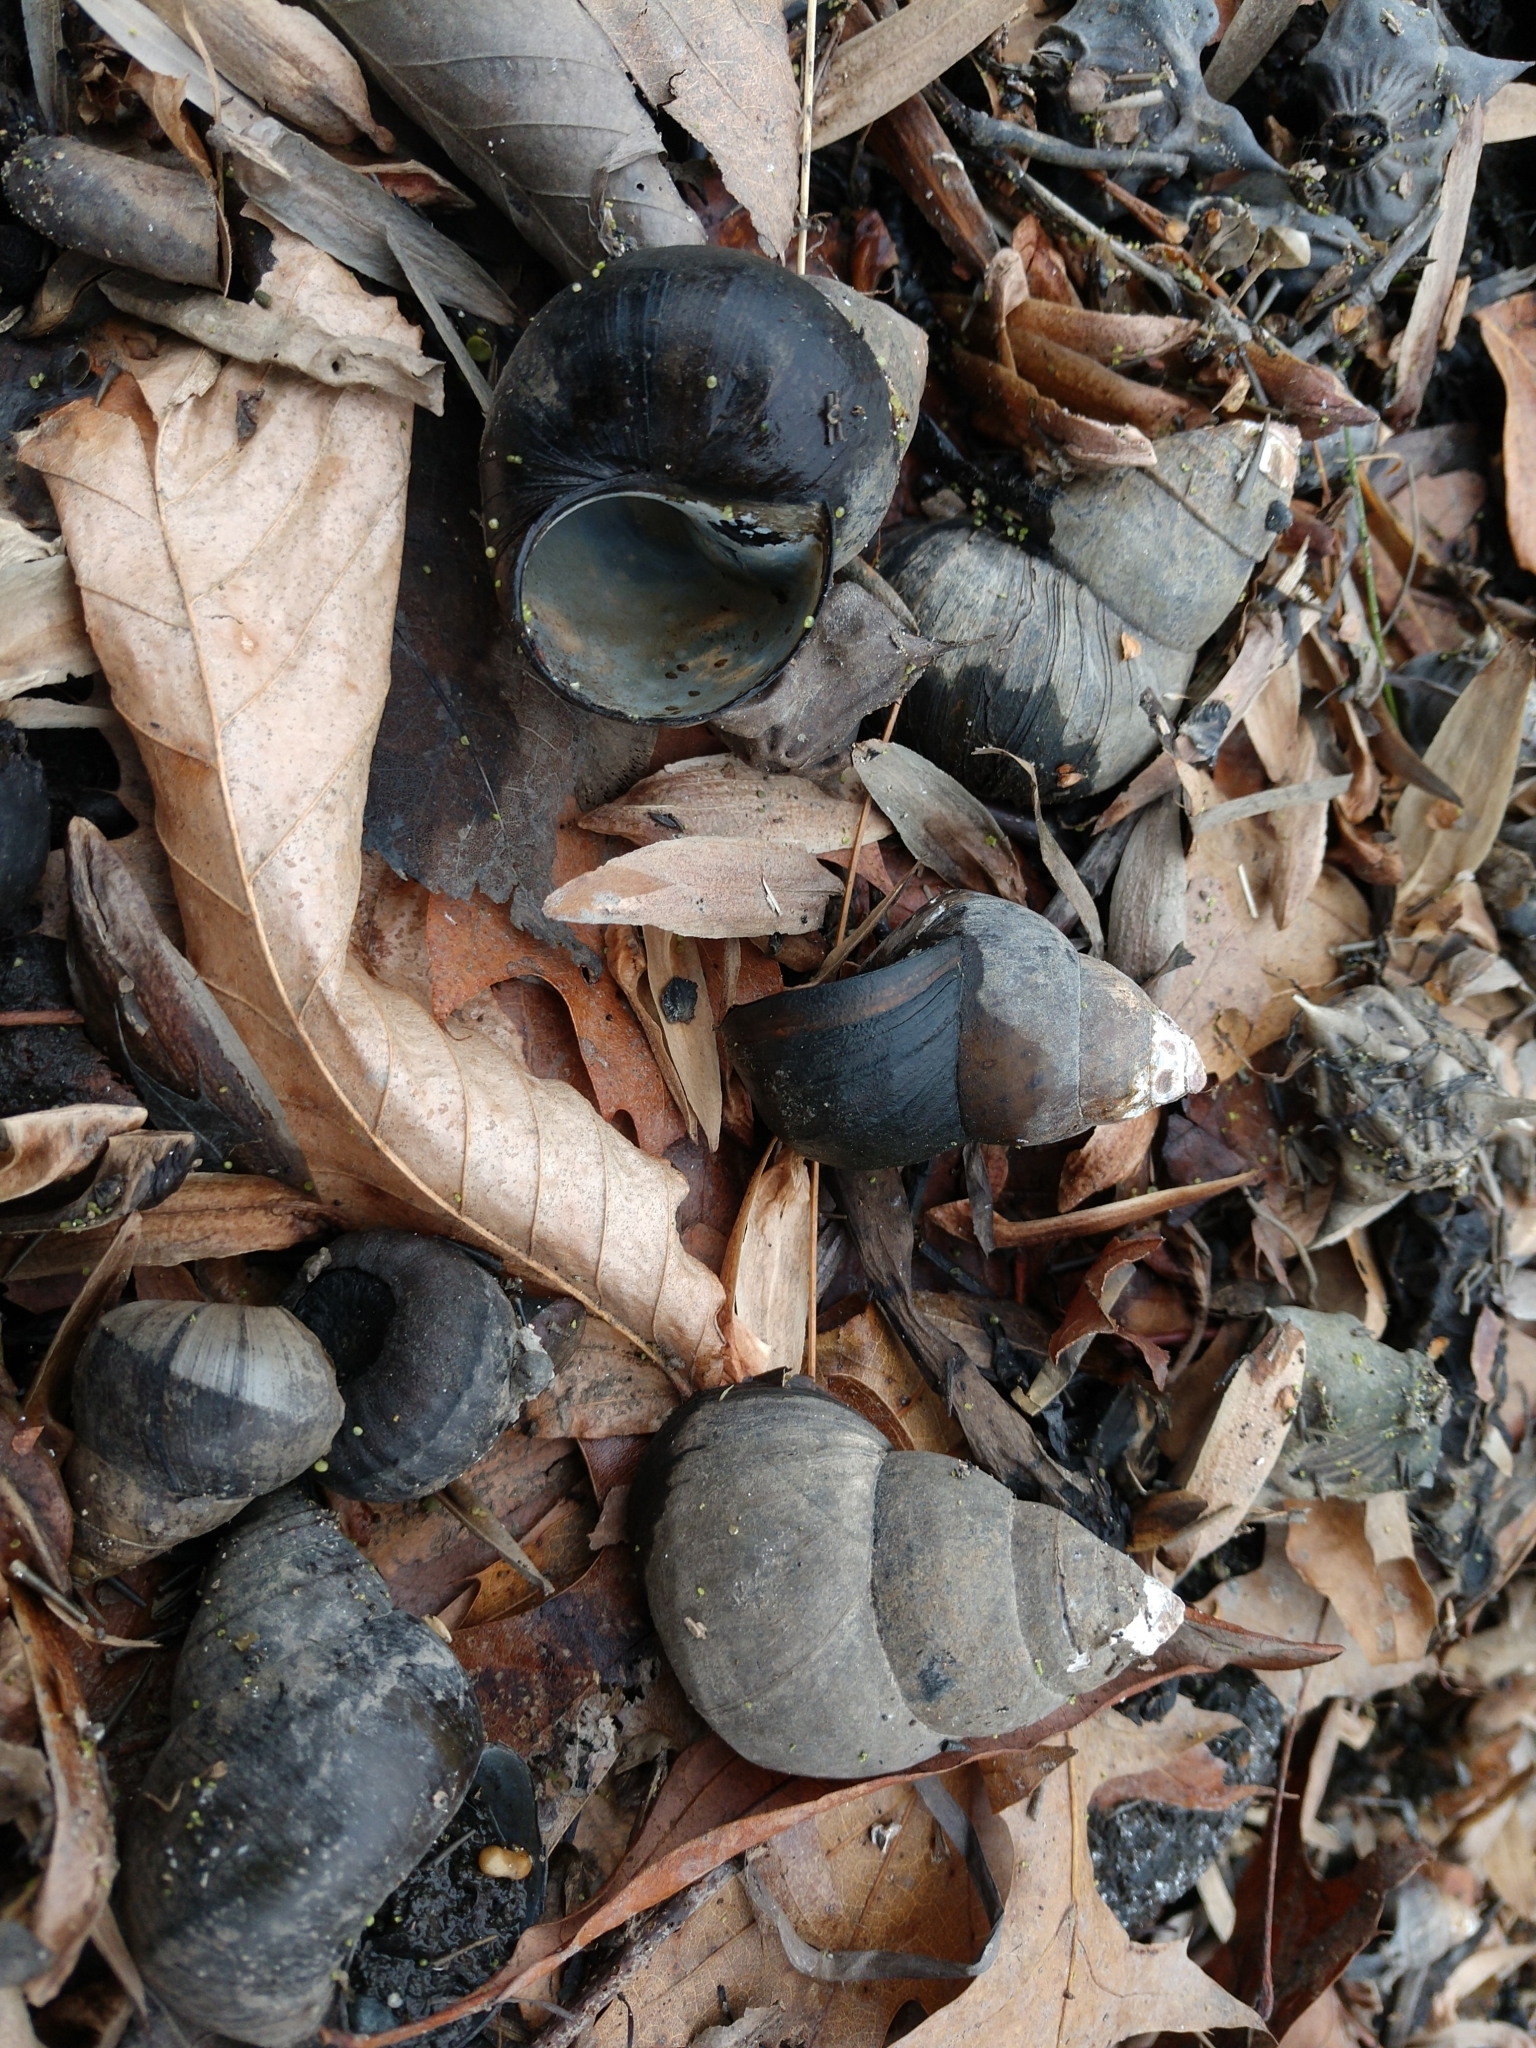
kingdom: Animalia
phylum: Mollusca
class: Gastropoda
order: Architaenioglossa
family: Viviparidae
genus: Cipangopaludina
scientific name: Cipangopaludina chinensis
